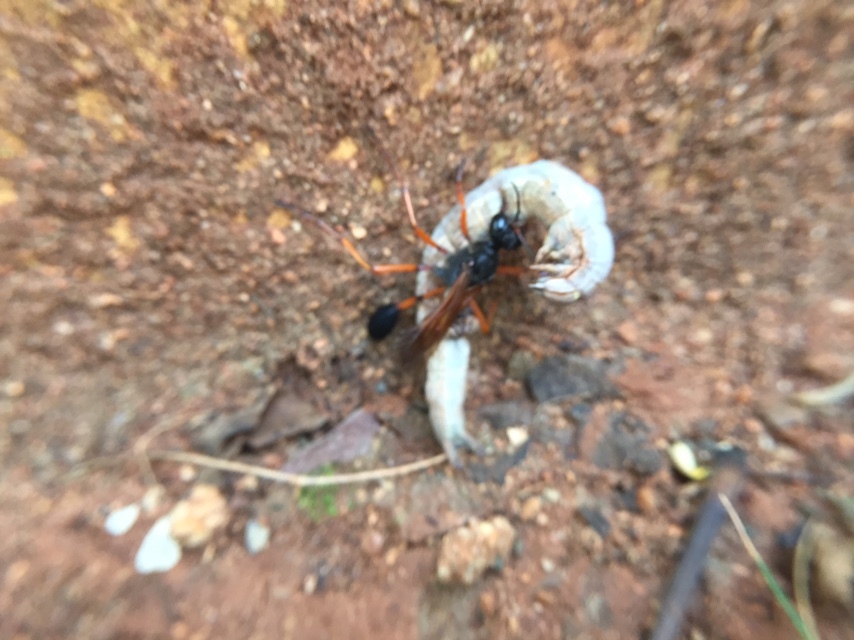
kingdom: Animalia
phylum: Arthropoda
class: Insecta
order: Hymenoptera
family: Sphecidae
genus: Ammophila
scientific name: Ammophila clavus
